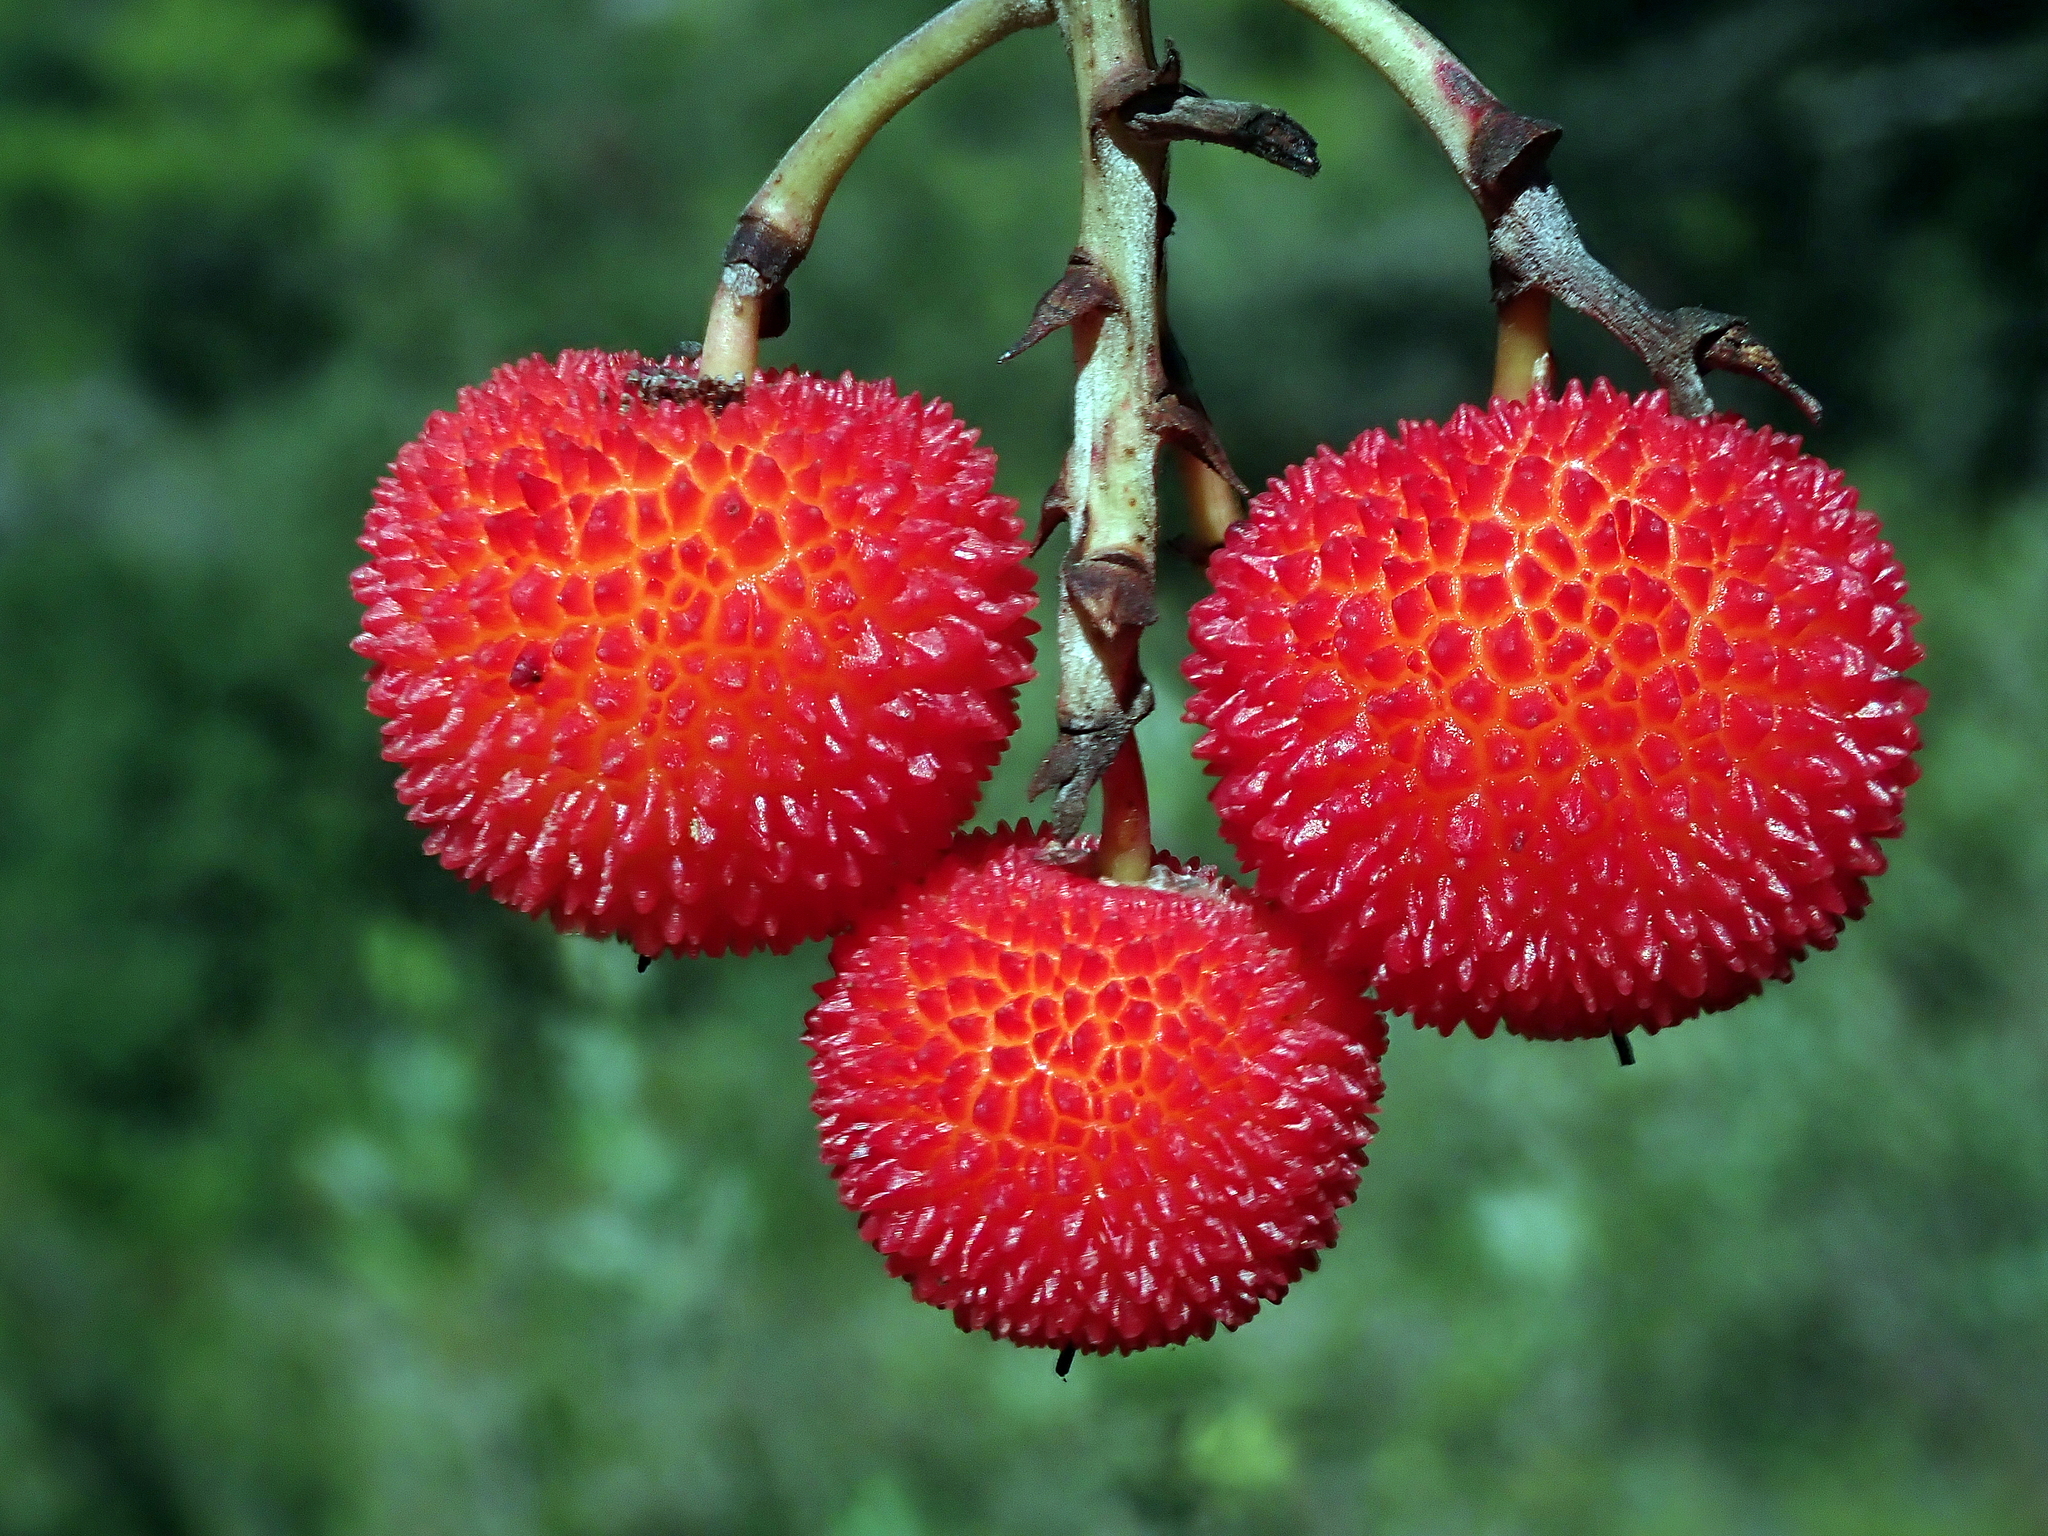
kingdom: Plantae
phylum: Tracheophyta
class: Magnoliopsida
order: Ericales
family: Ericaceae
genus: Arbutus
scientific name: Arbutus unedo
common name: Strawberry-tree
